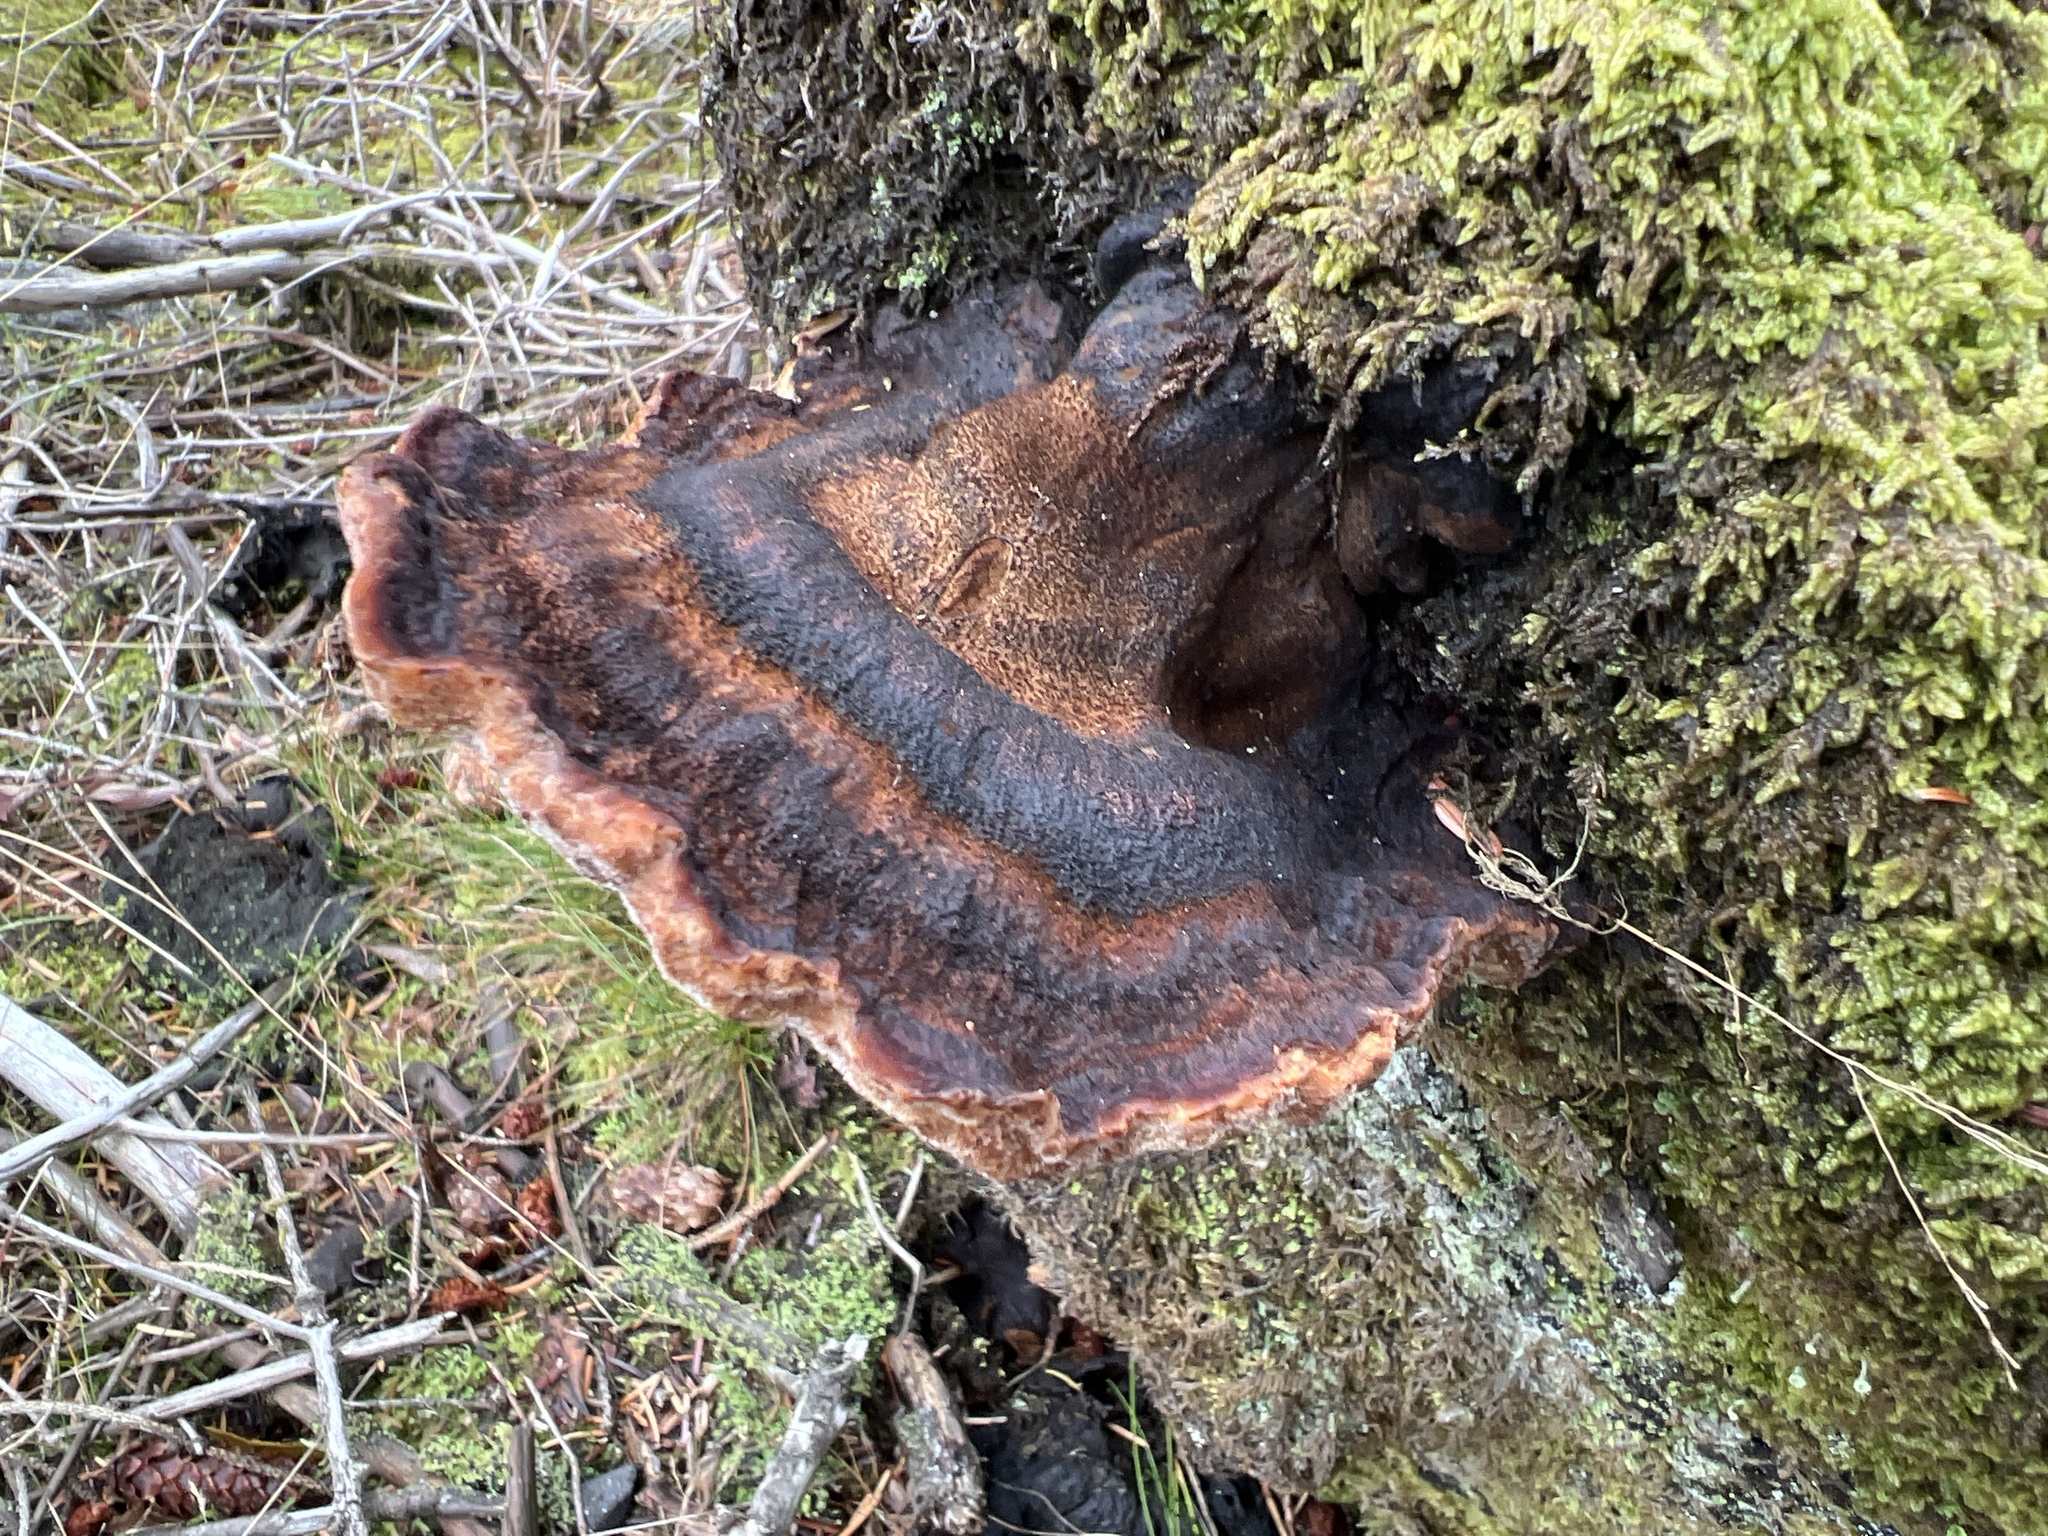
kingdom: Fungi
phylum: Basidiomycota
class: Agaricomycetes
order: Polyporales
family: Ischnodermataceae
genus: Ischnoderma
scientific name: Ischnoderma benzoinum
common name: Benzoin bracket
